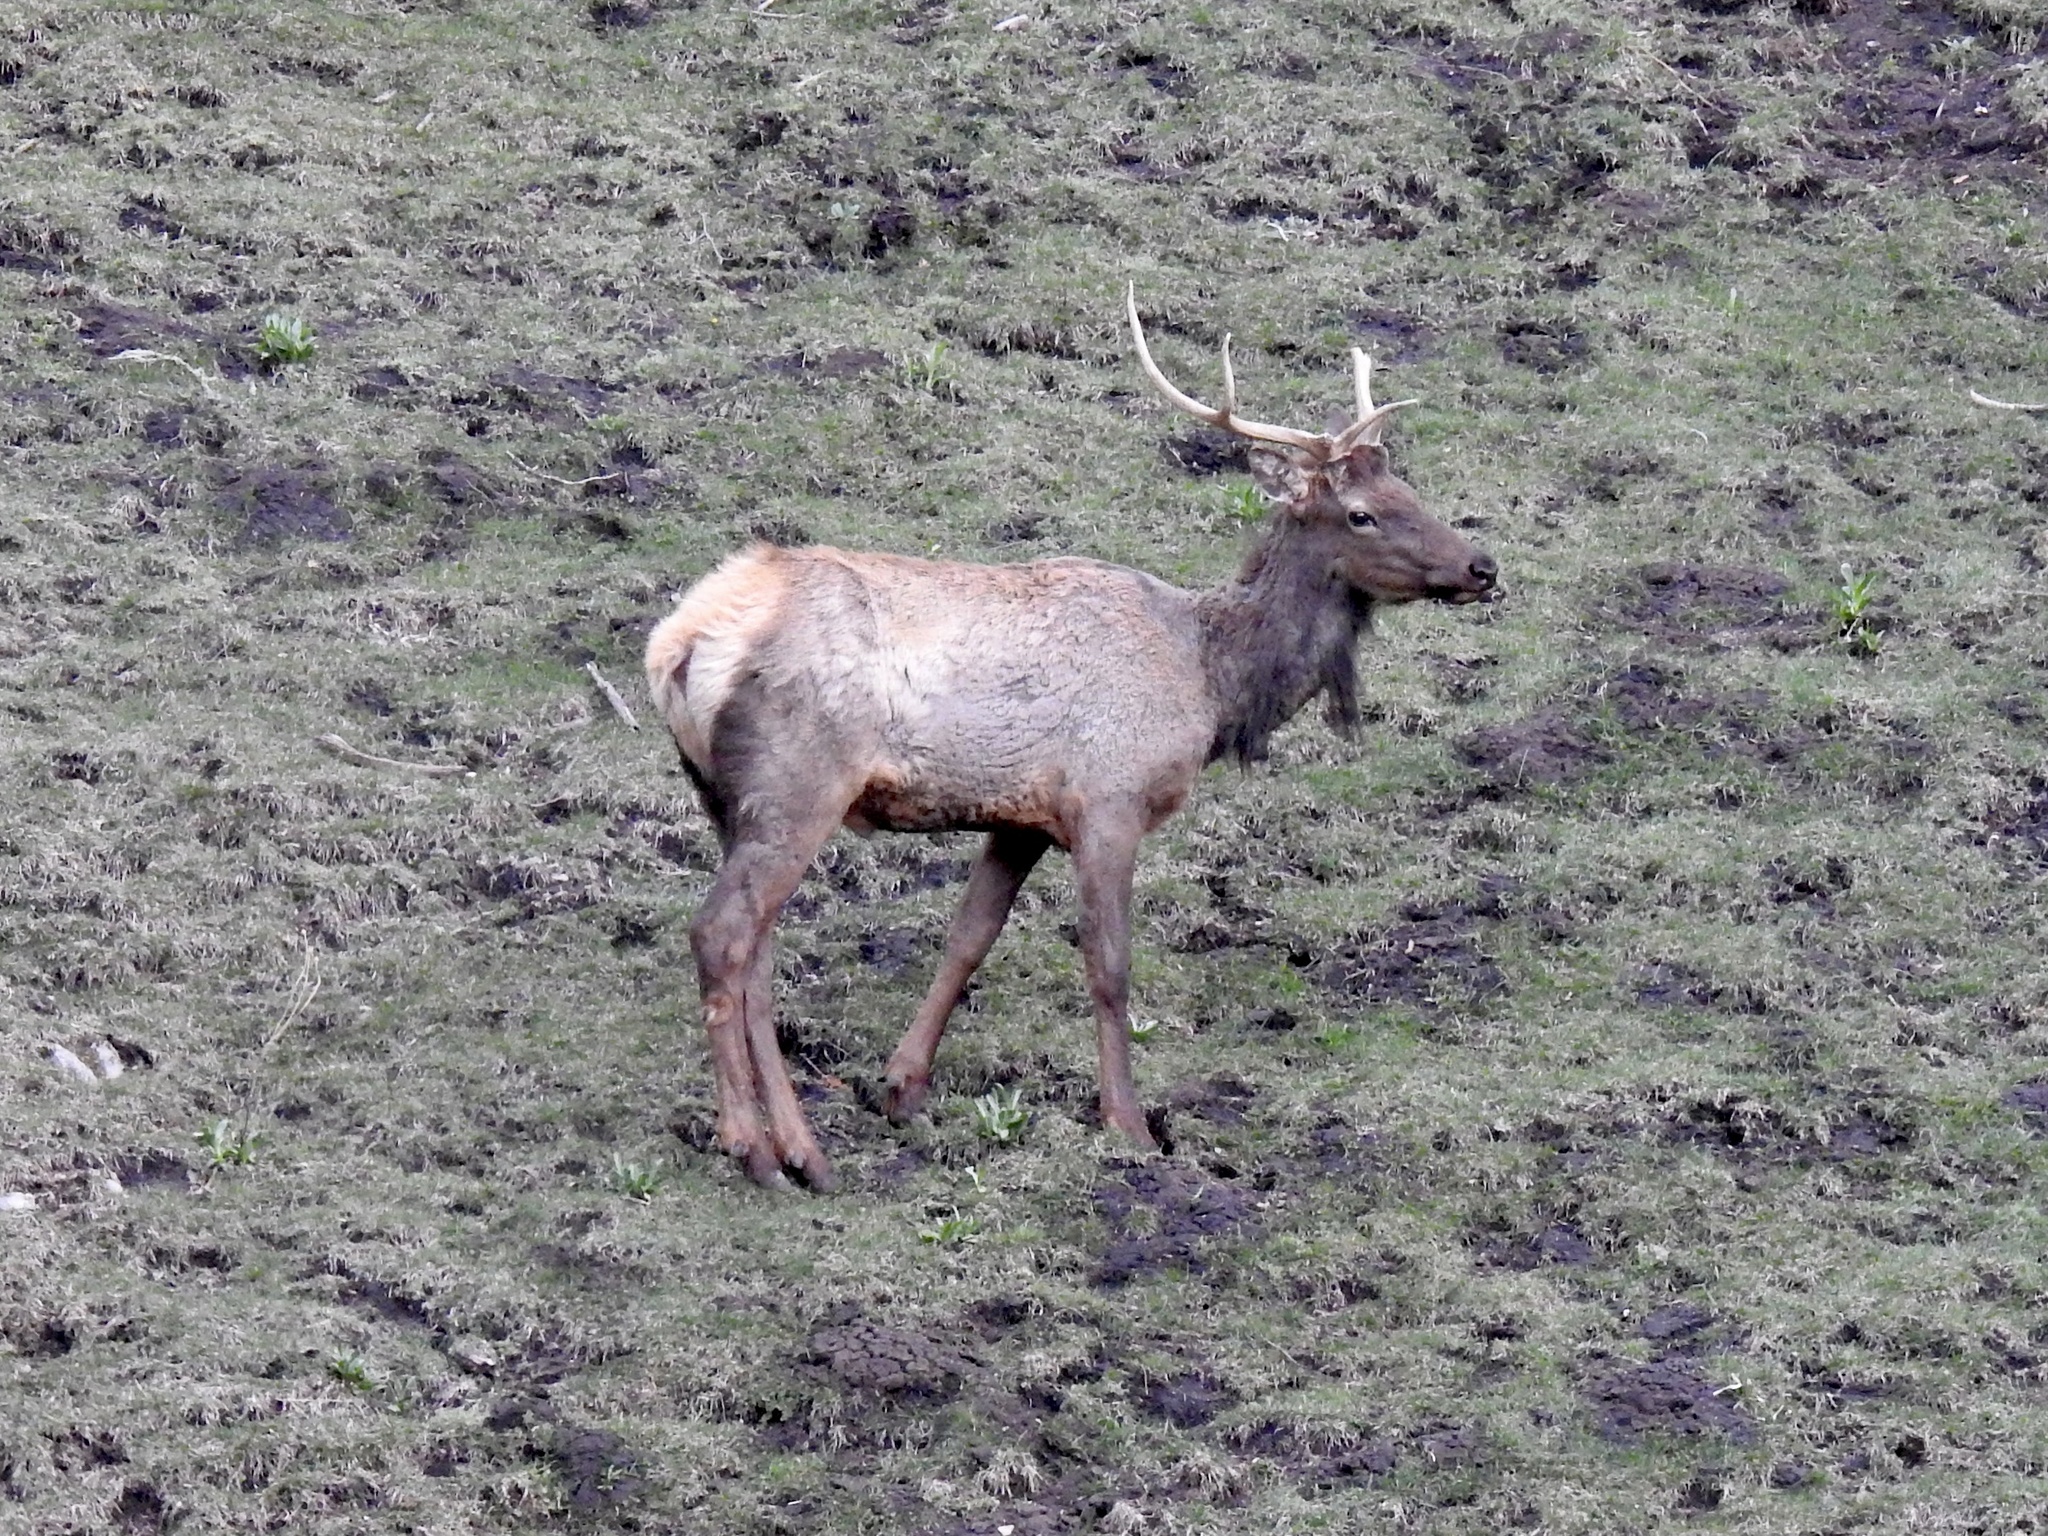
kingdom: Animalia
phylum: Chordata
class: Mammalia
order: Artiodactyla
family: Cervidae
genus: Cervus
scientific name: Cervus elaphus
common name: Red deer
